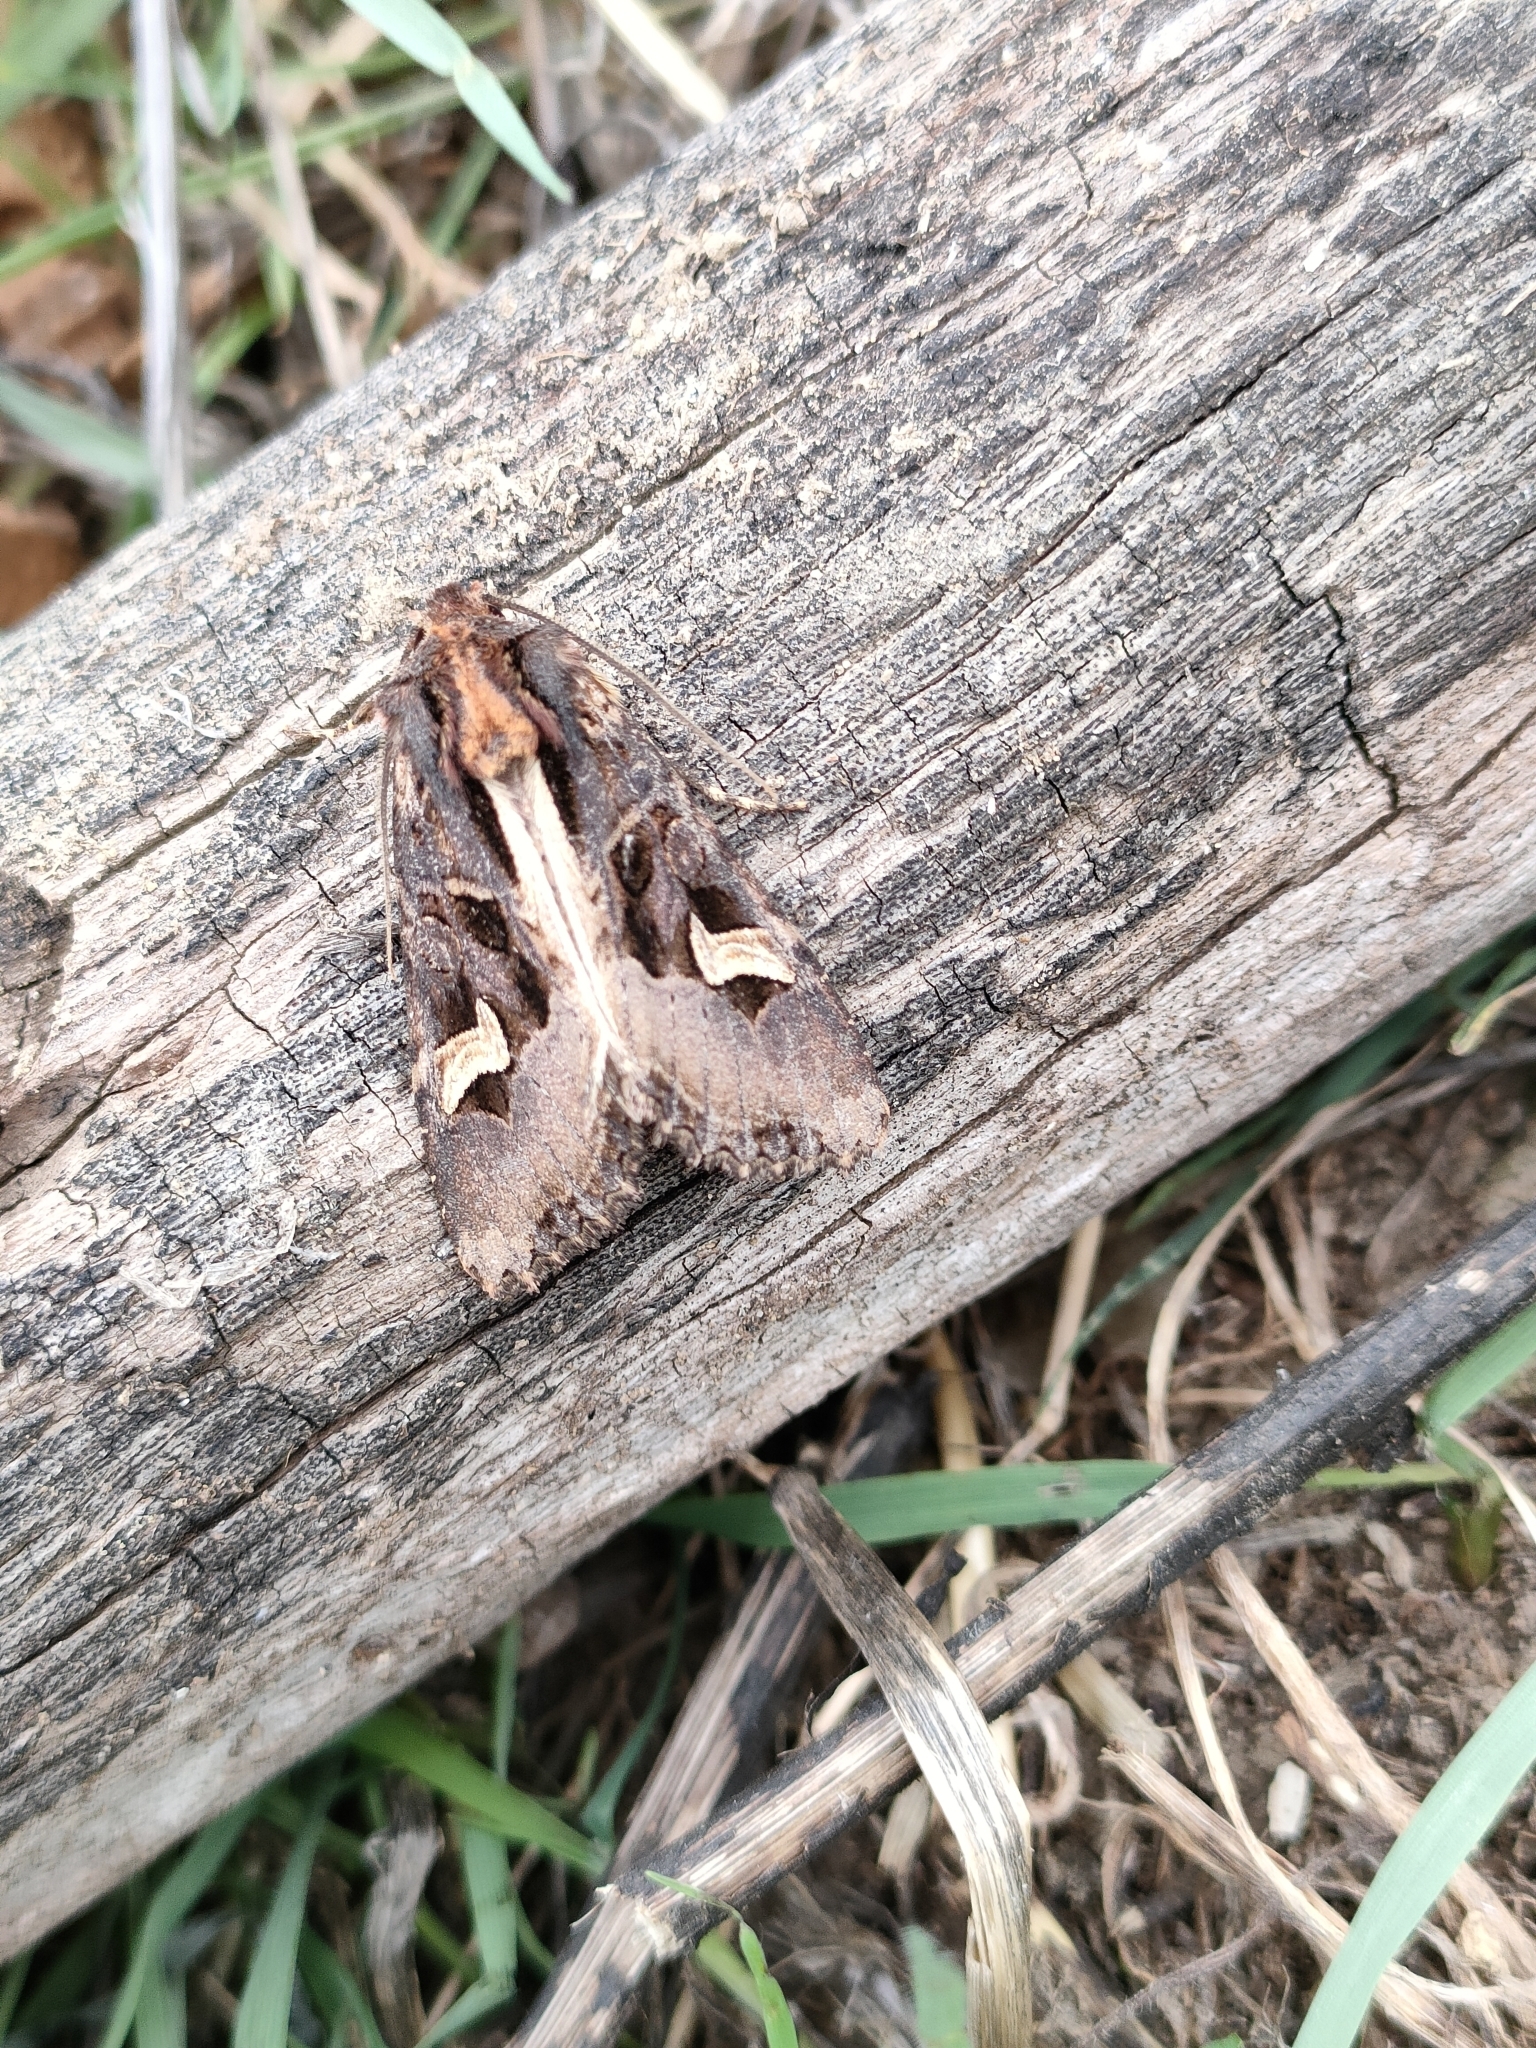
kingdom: Animalia
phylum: Arthropoda
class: Insecta
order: Lepidoptera
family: Noctuidae
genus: Trigonophora
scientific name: Trigonophora flammea
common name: Flame brocade
